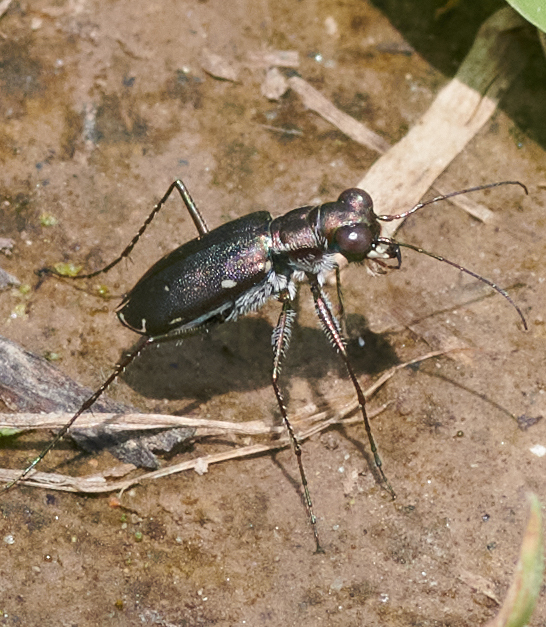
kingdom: Animalia
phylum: Arthropoda
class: Insecta
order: Coleoptera
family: Carabidae
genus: Cicindela
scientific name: Cicindela punctulata
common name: Punctured tiger beetle
